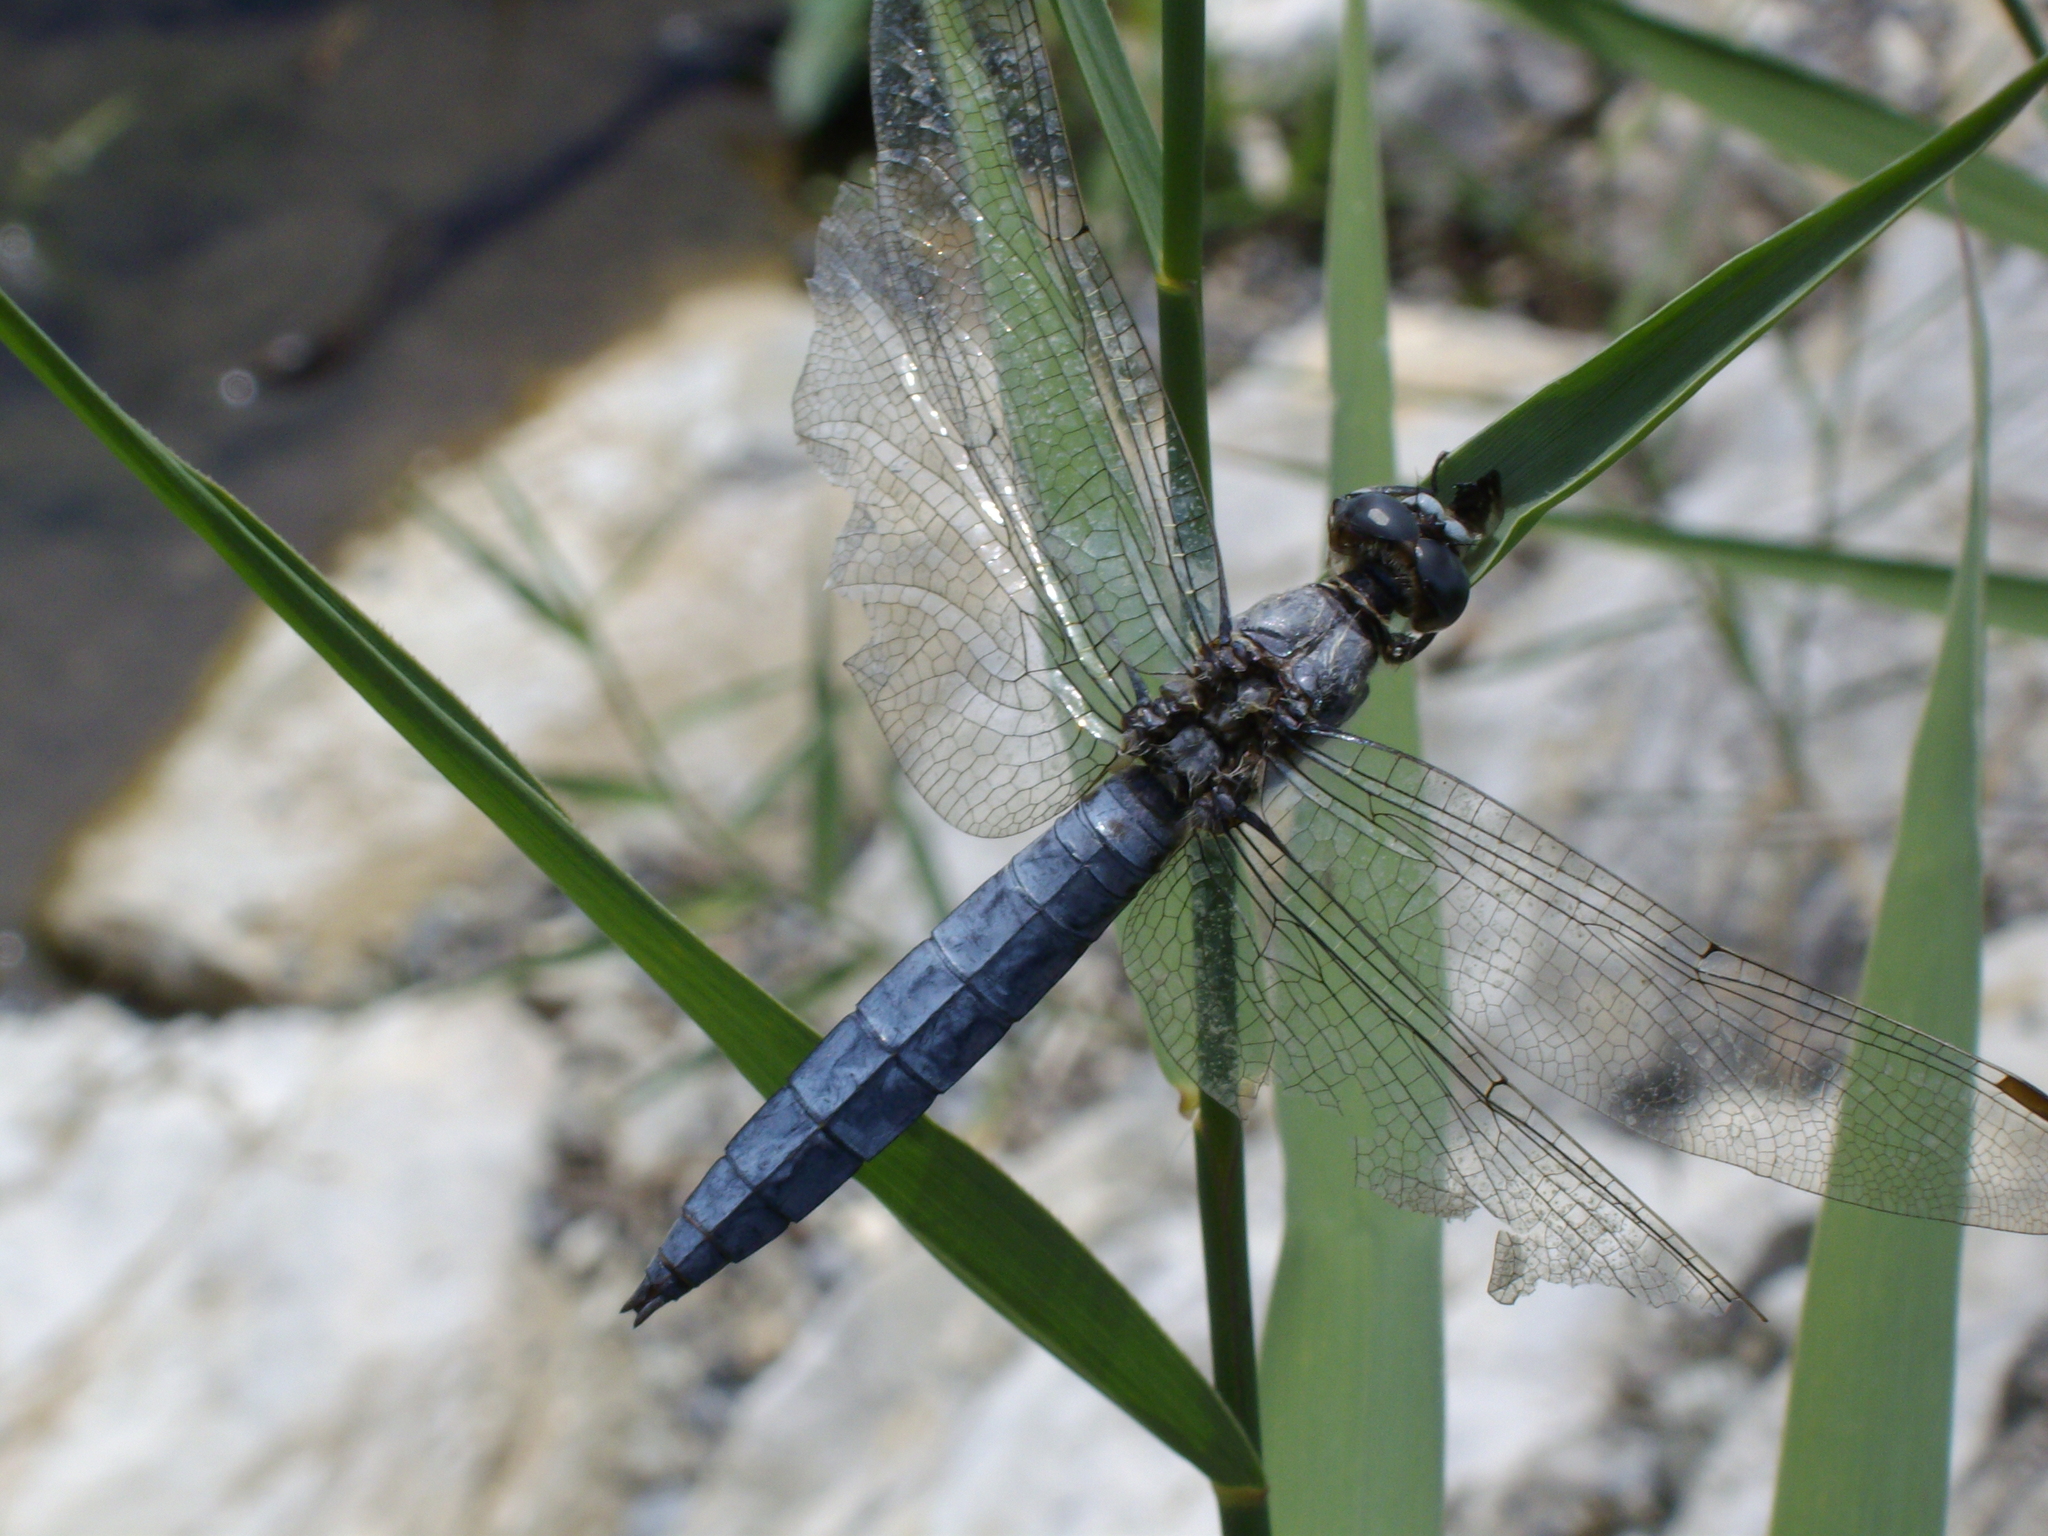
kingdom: Animalia
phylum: Arthropoda
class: Insecta
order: Odonata
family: Libellulidae
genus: Orthetrum
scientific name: Orthetrum brunneum
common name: Southern skimmer
